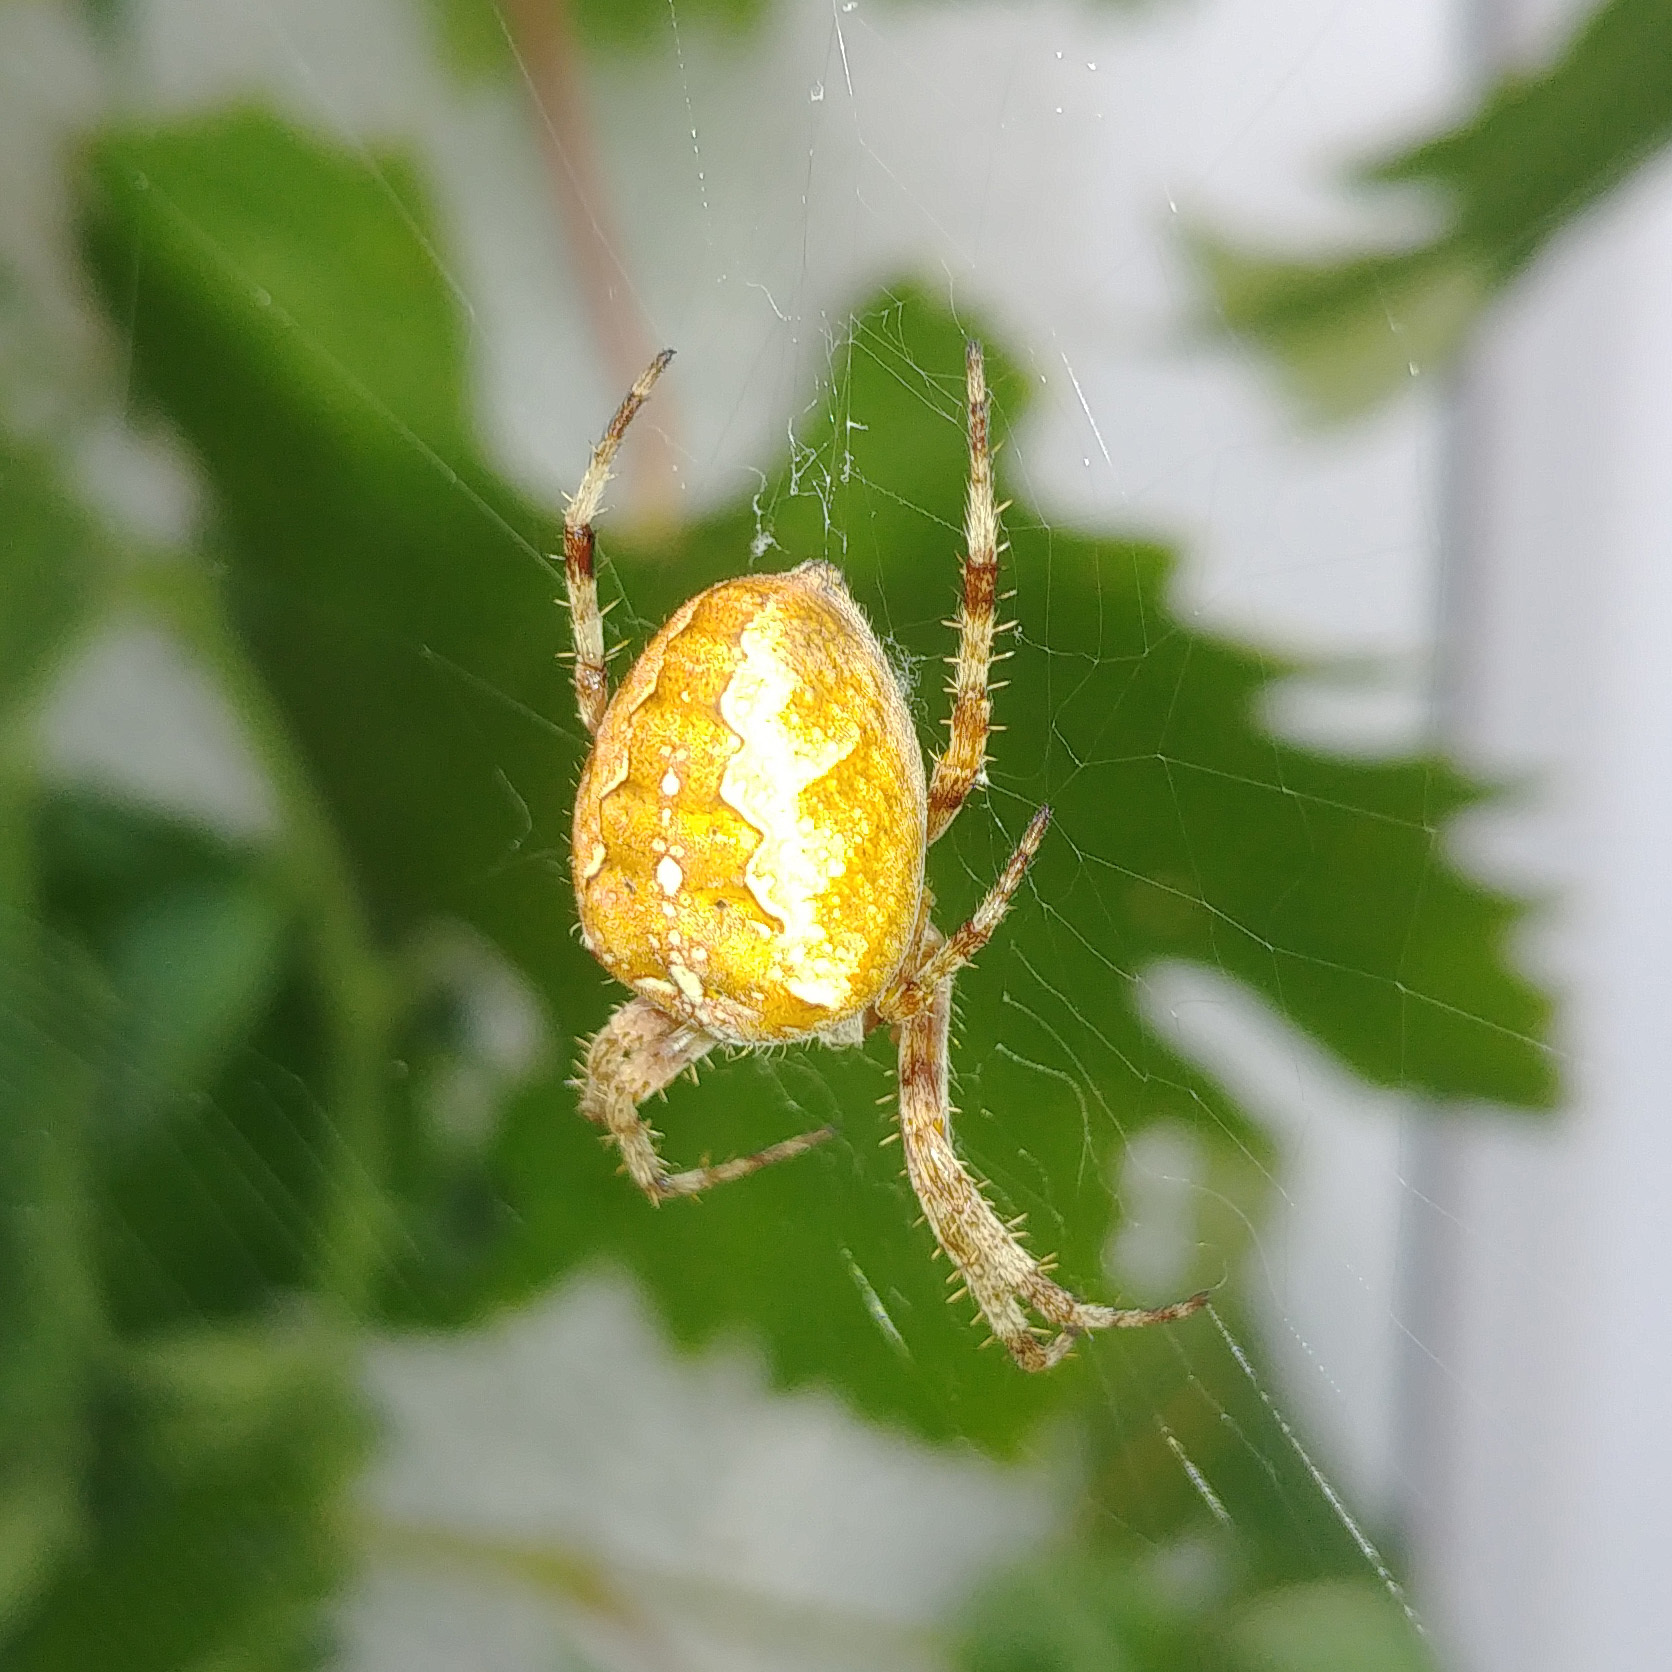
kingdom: Animalia
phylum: Arthropoda
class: Arachnida
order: Araneae
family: Araneidae
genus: Araneus
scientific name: Araneus diadematus
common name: Cross orbweaver
